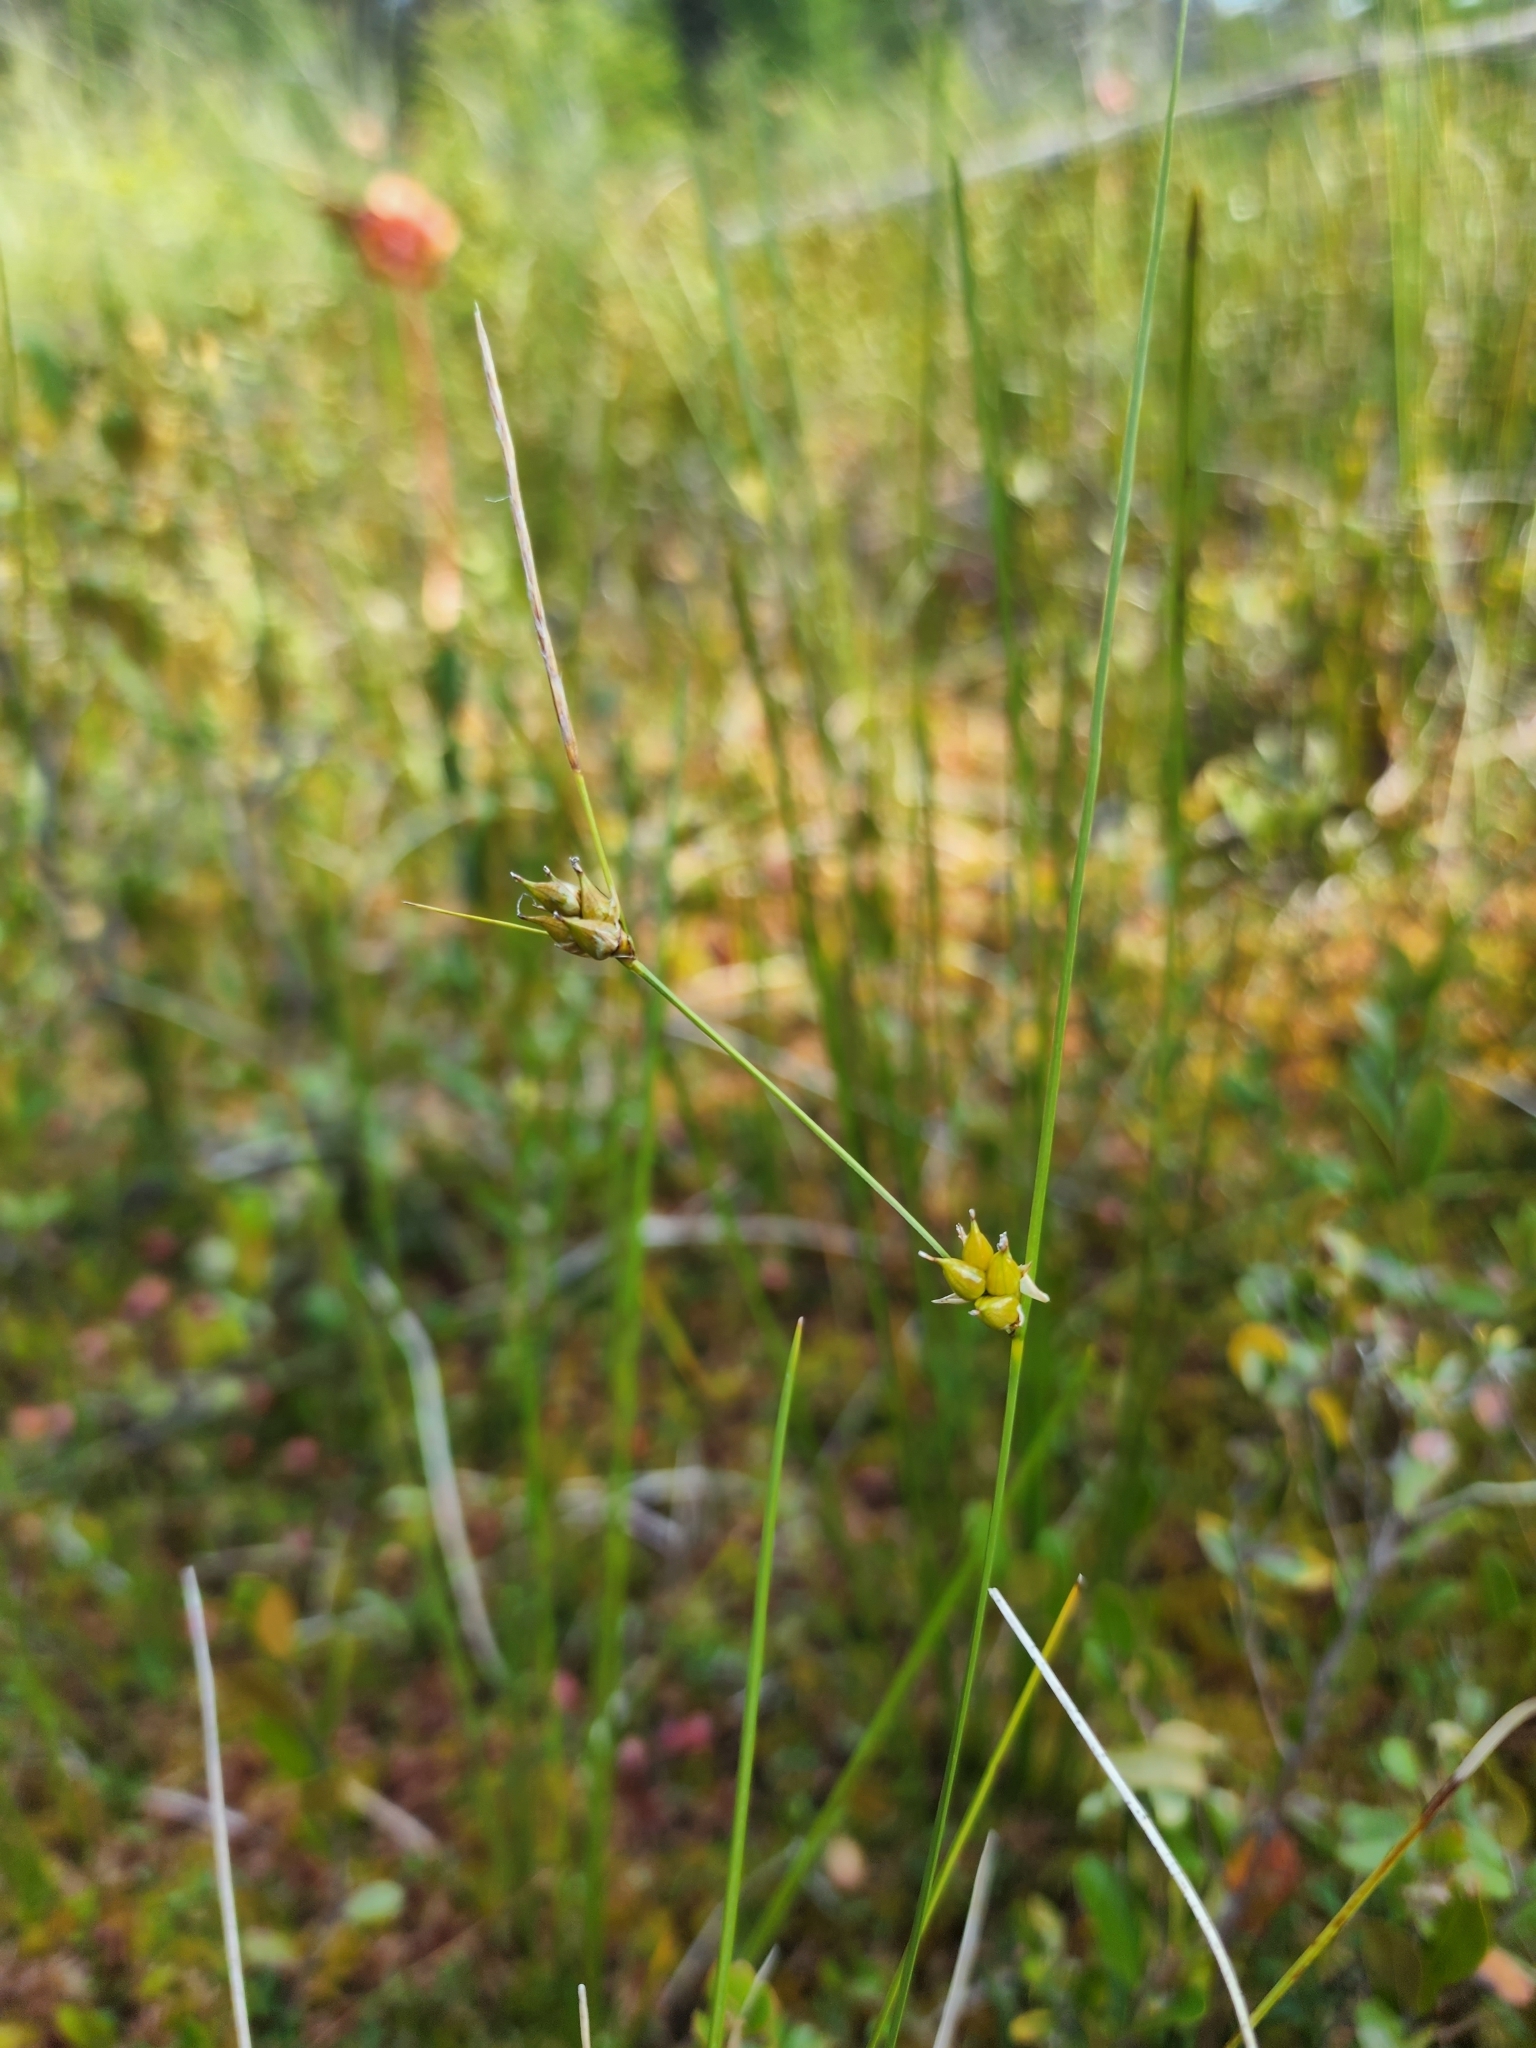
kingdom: Plantae
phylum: Tracheophyta
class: Liliopsida
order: Poales
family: Cyperaceae
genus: Carex
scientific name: Carex oligosperma
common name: Few-seed sedge
